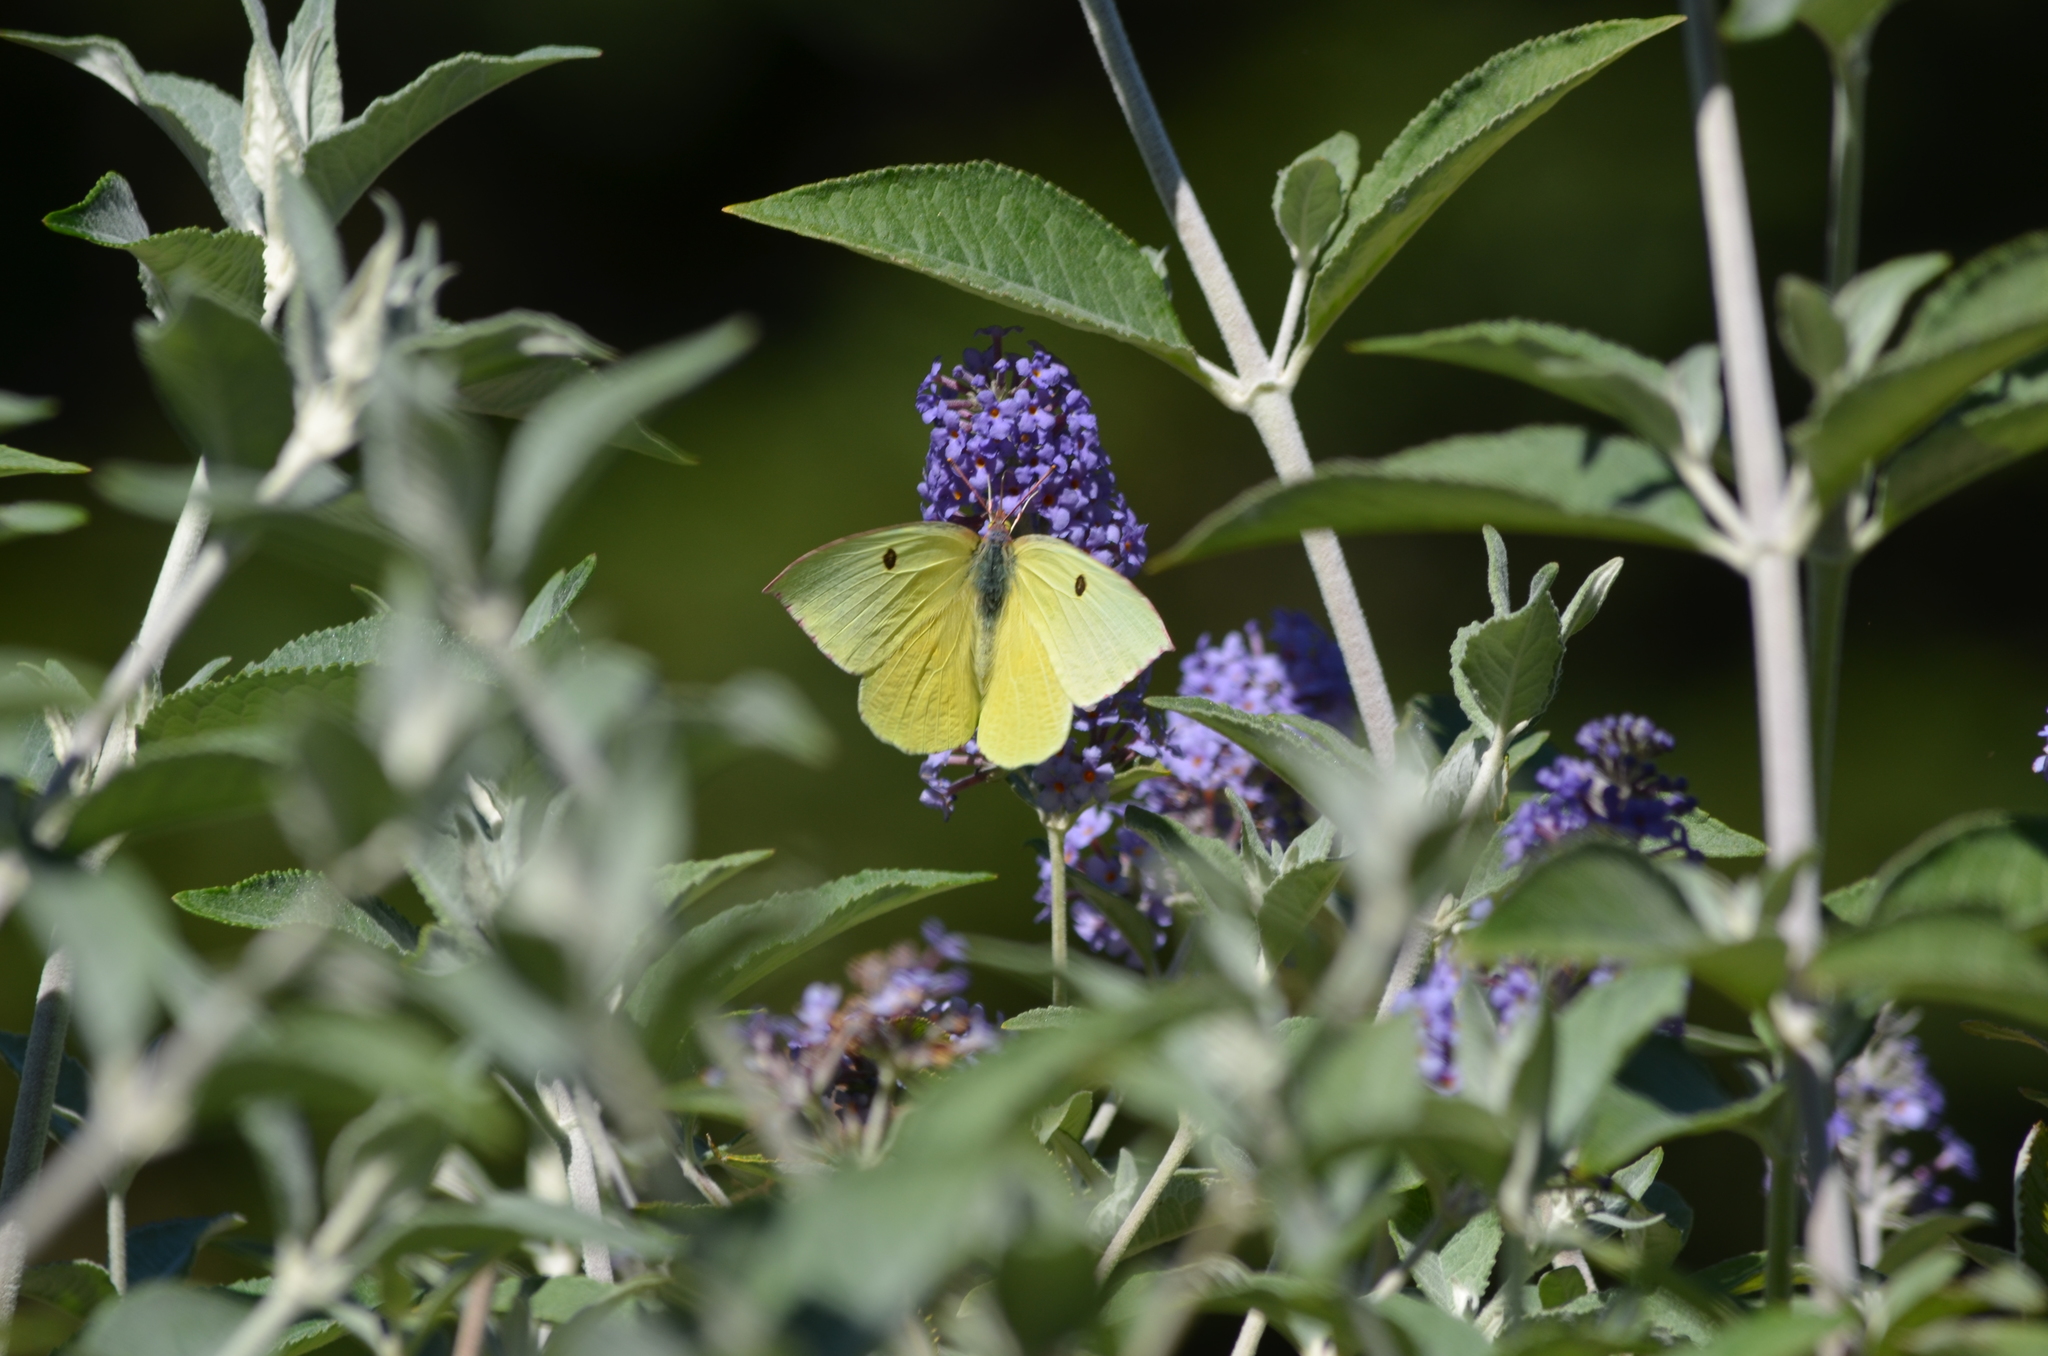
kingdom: Animalia
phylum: Arthropoda
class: Insecta
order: Lepidoptera
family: Pieridae
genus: Zerene
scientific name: Zerene eurydice
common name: California dogface
